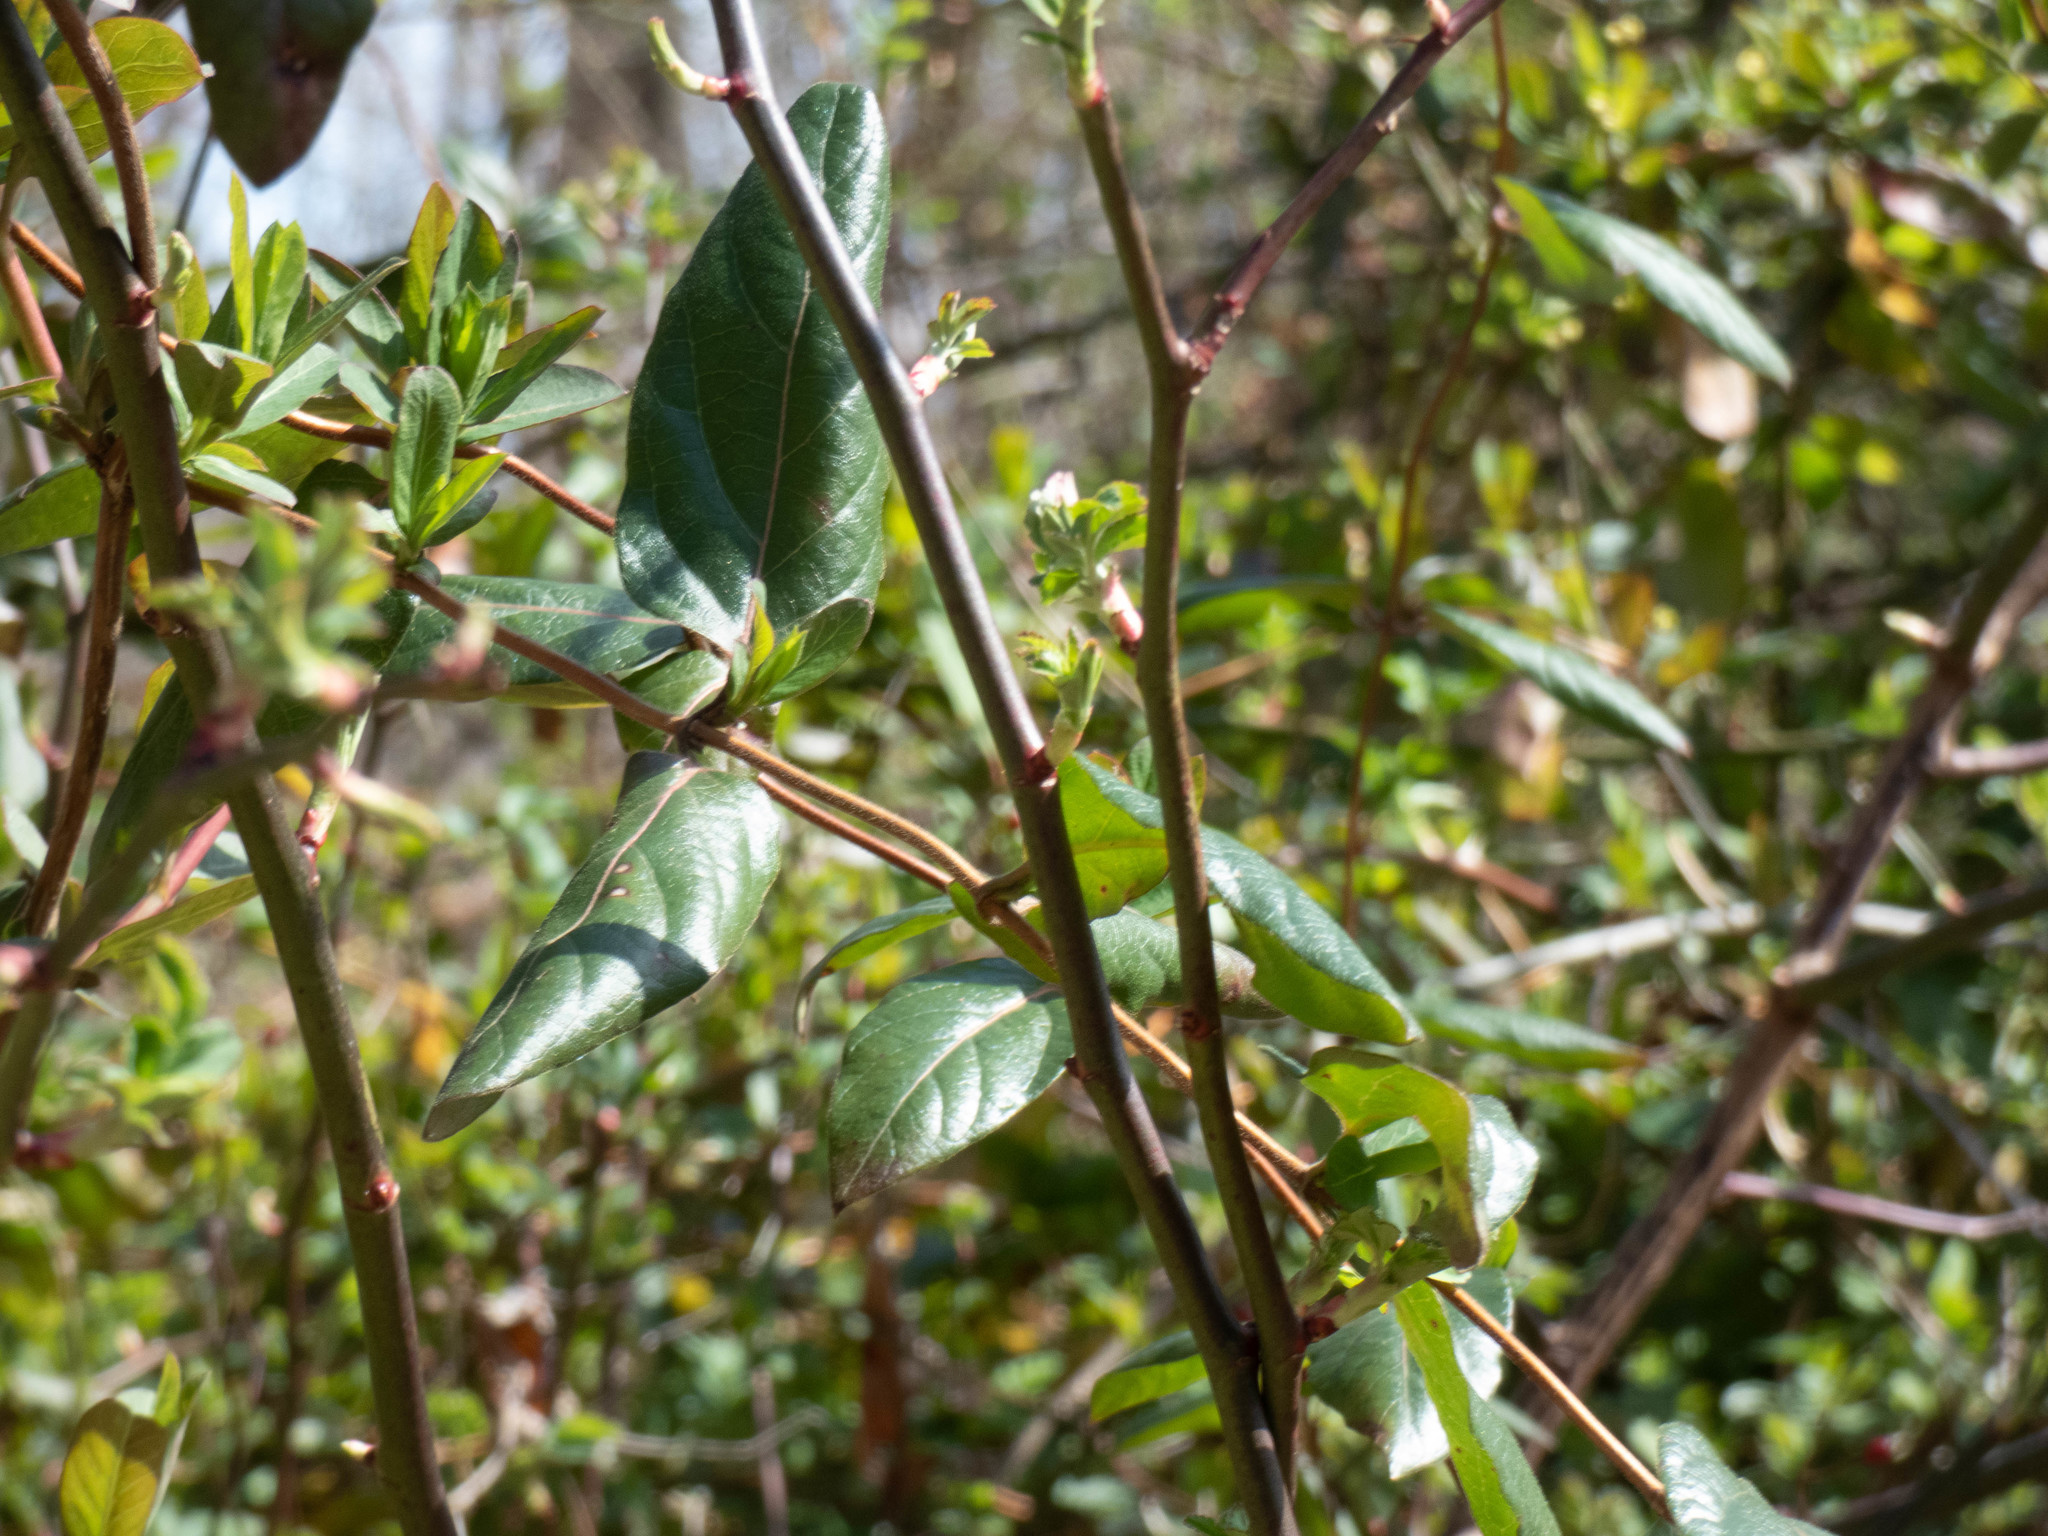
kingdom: Plantae
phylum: Tracheophyta
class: Magnoliopsida
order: Dipsacales
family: Caprifoliaceae
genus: Lonicera
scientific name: Lonicera japonica
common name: Japanese honeysuckle
